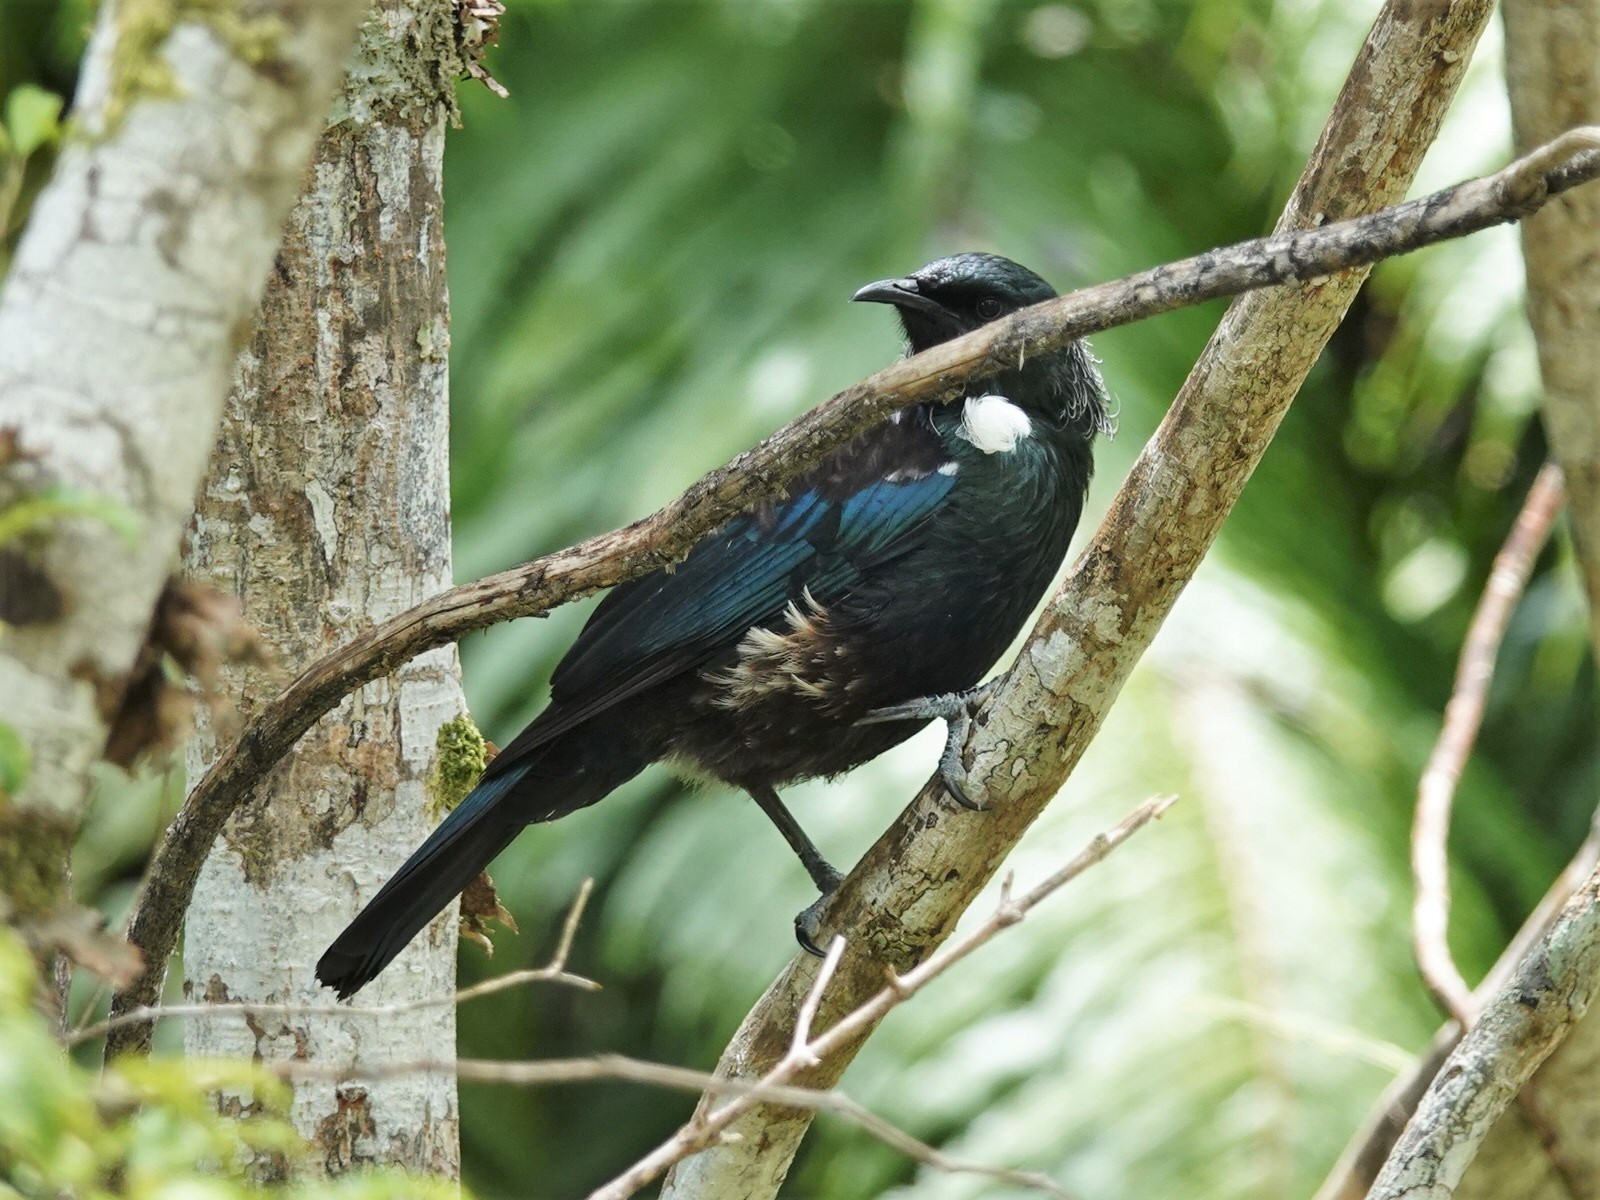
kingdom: Animalia
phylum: Chordata
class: Aves
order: Passeriformes
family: Meliphagidae
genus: Prosthemadera
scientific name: Prosthemadera novaeseelandiae
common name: Tui
